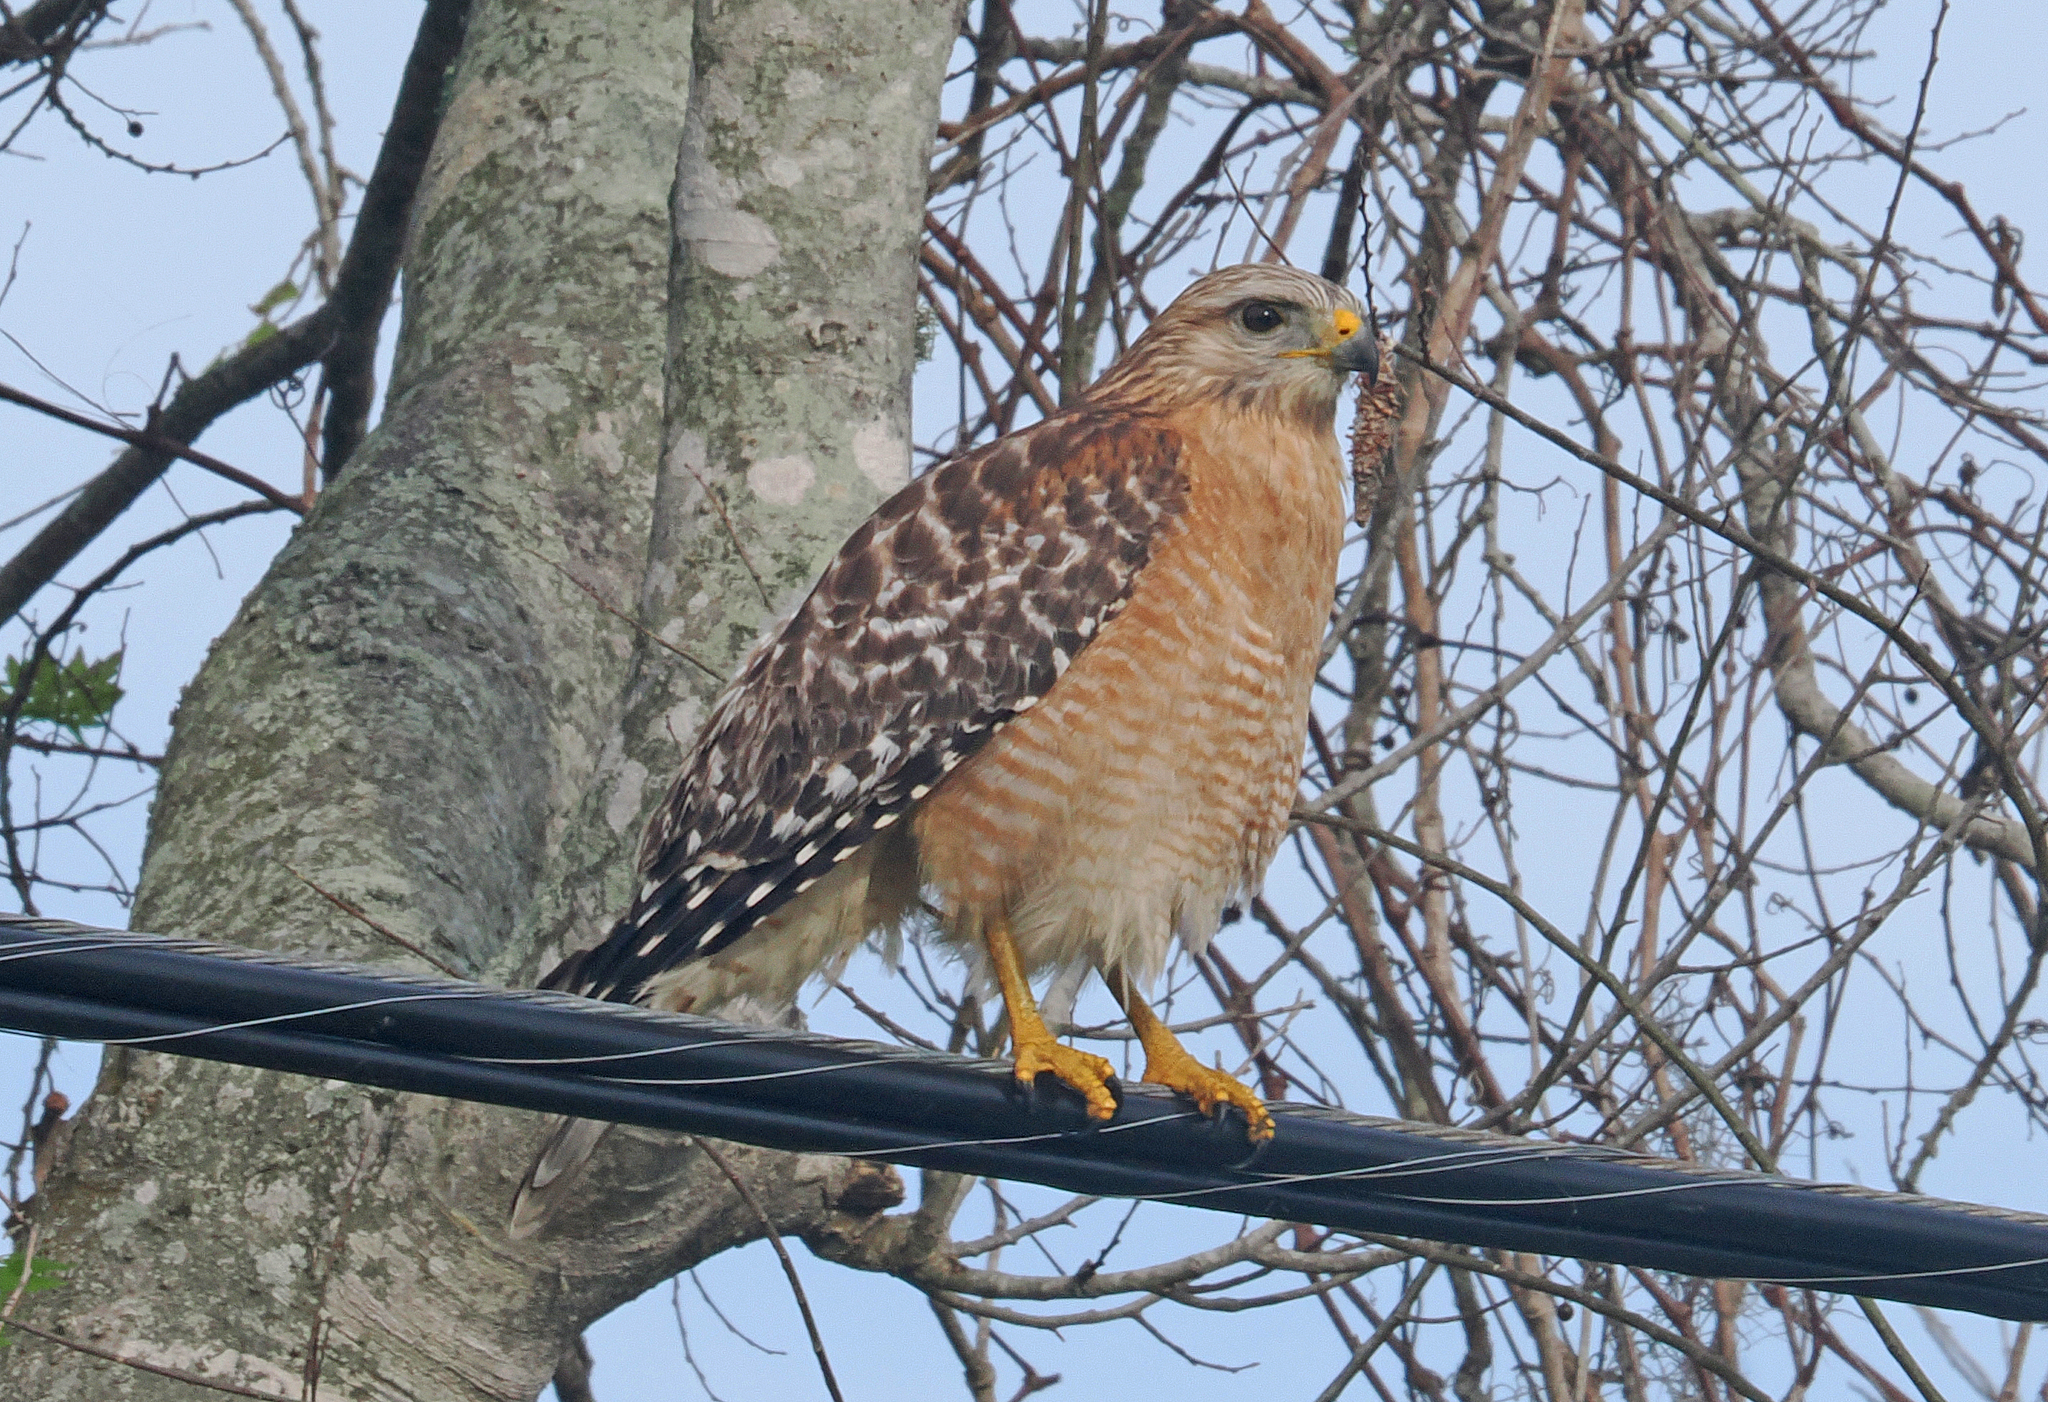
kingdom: Animalia
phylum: Chordata
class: Aves
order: Accipitriformes
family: Accipitridae
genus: Buteo
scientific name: Buteo lineatus
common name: Red-shouldered hawk
